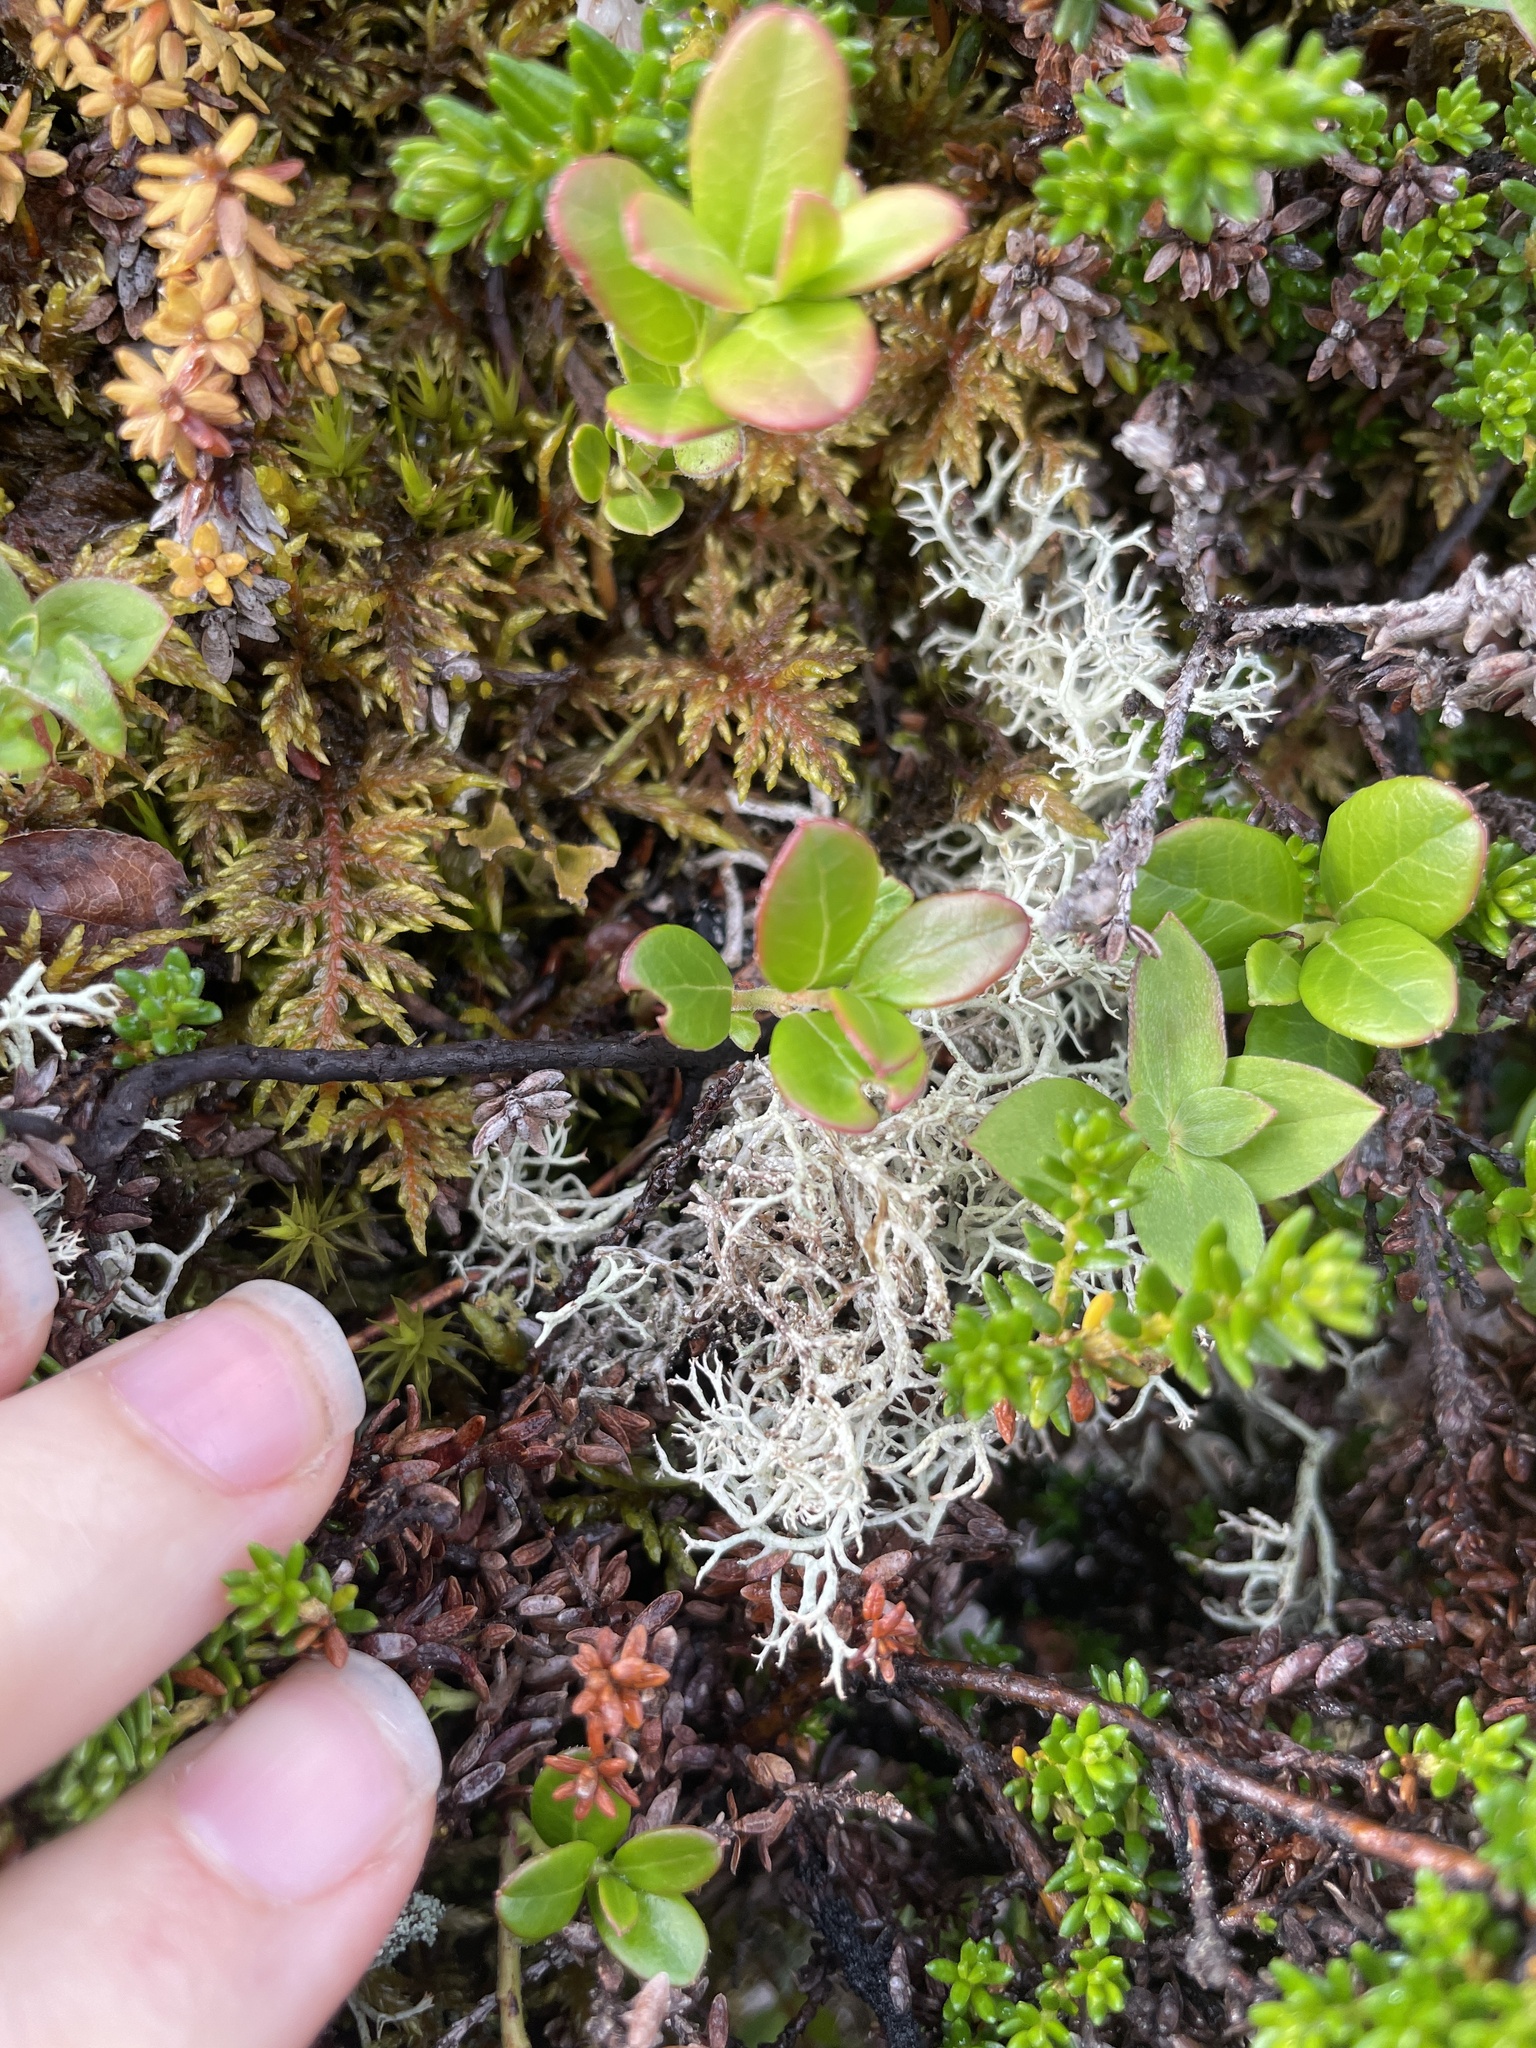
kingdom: Plantae
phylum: Tracheophyta
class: Magnoliopsida
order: Ericales
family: Ericaceae
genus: Vaccinium
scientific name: Vaccinium vitis-idaea
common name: Cowberry
